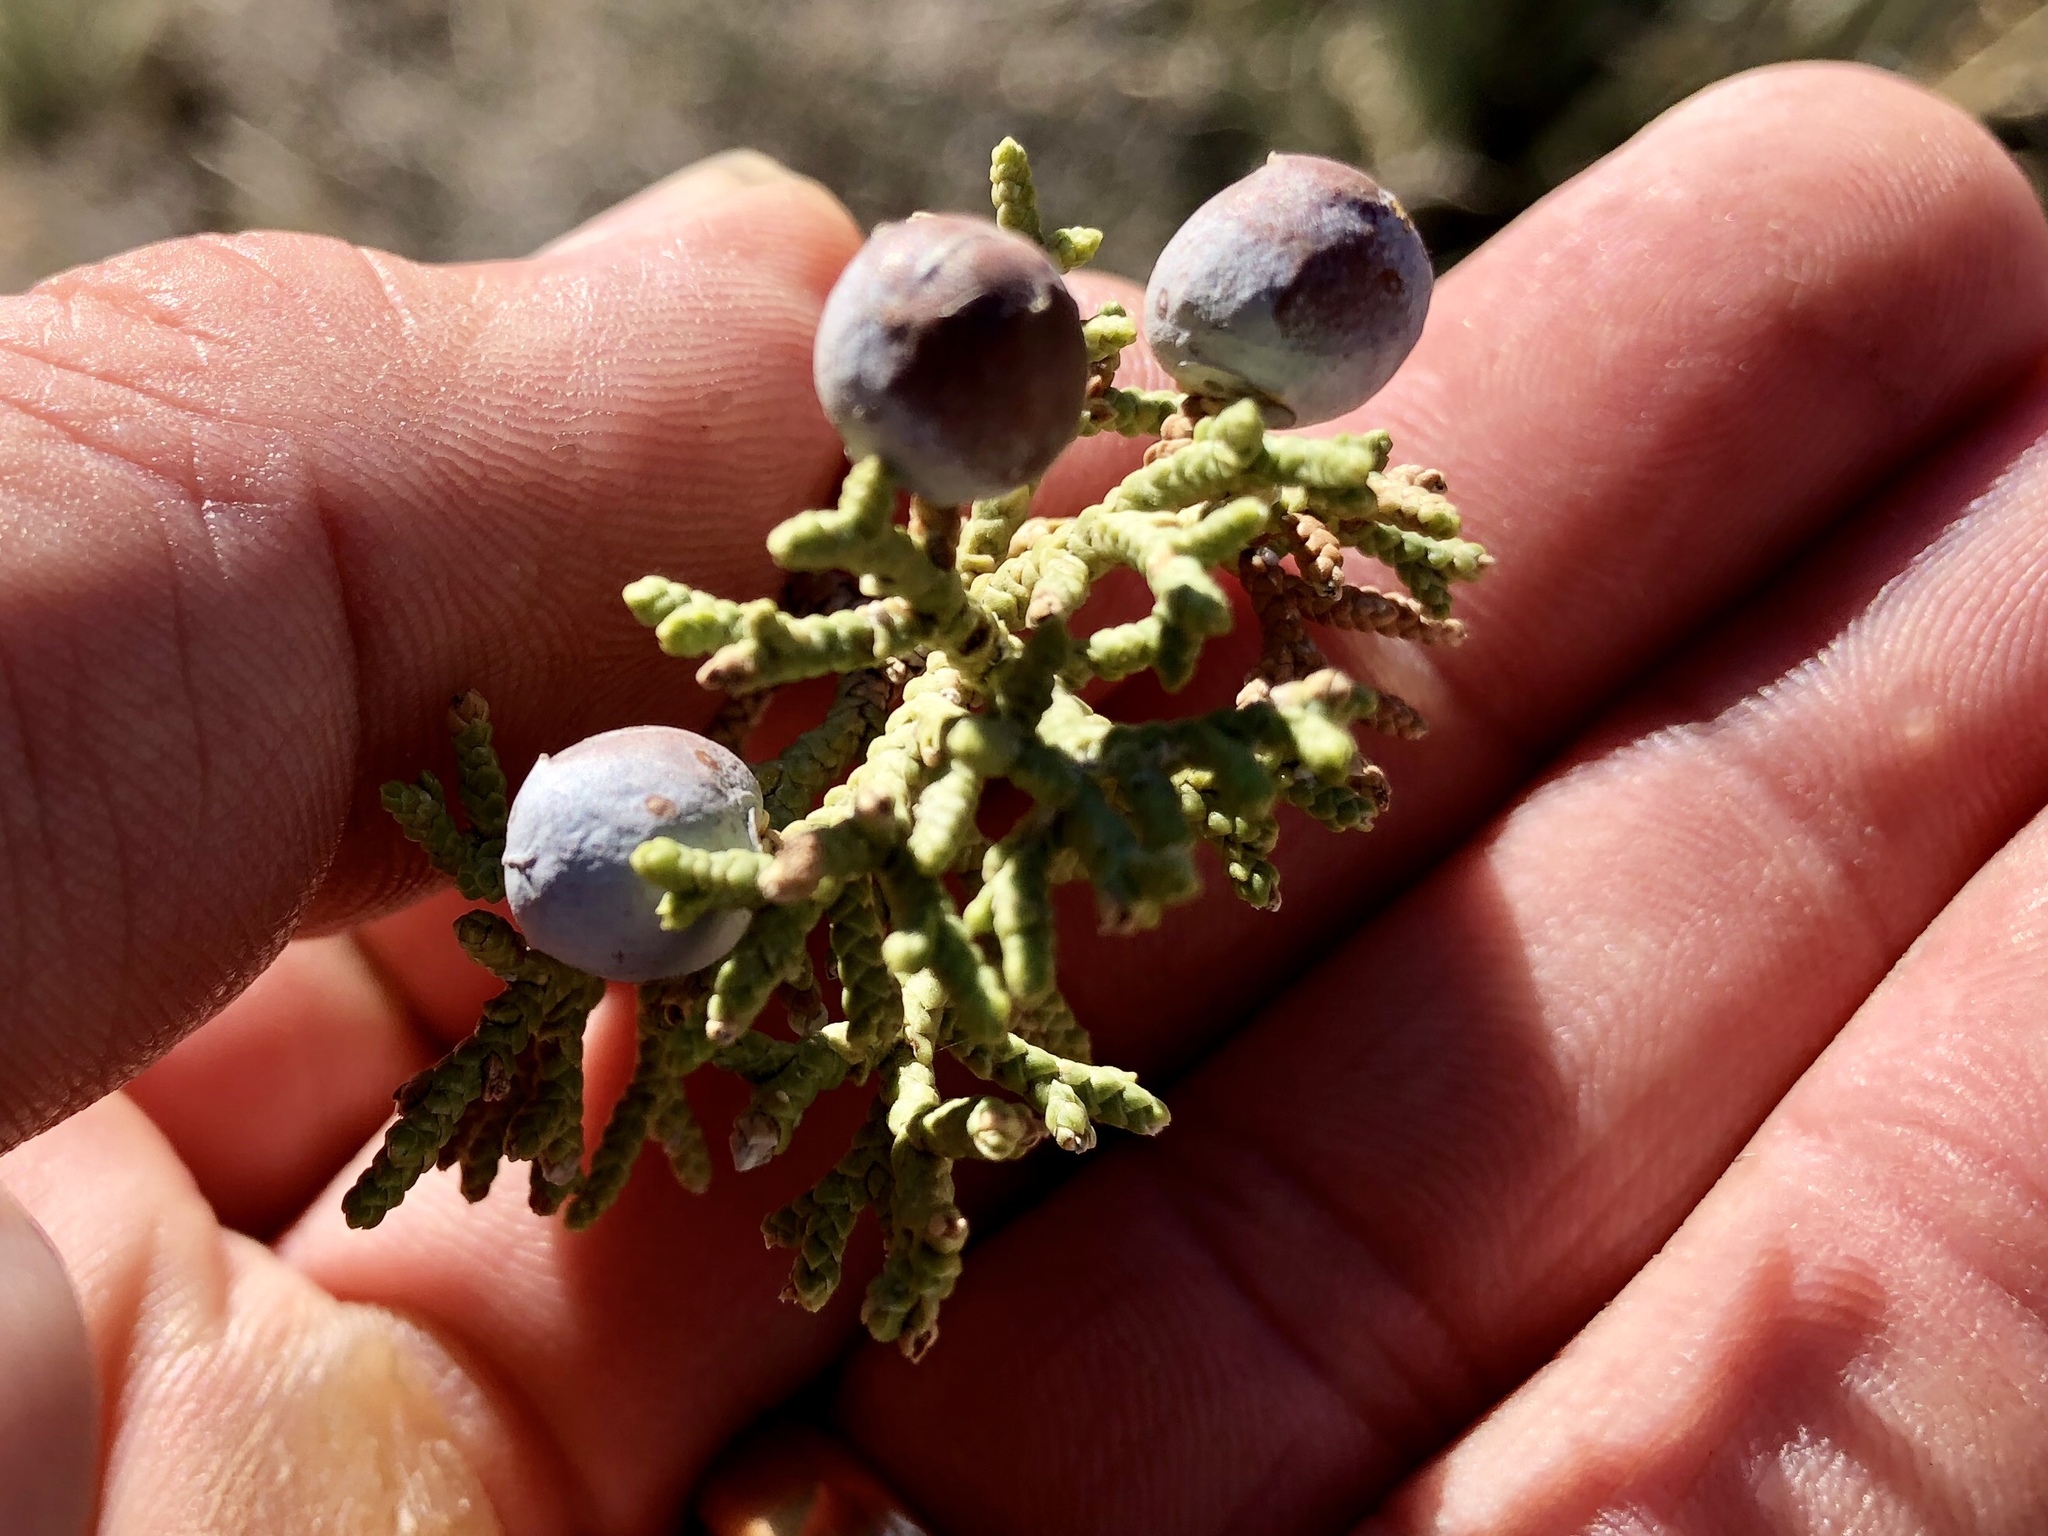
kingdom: Plantae
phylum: Tracheophyta
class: Pinopsida
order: Pinales
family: Cupressaceae
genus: Juniperus
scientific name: Juniperus osteosperma
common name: Utah juniper
